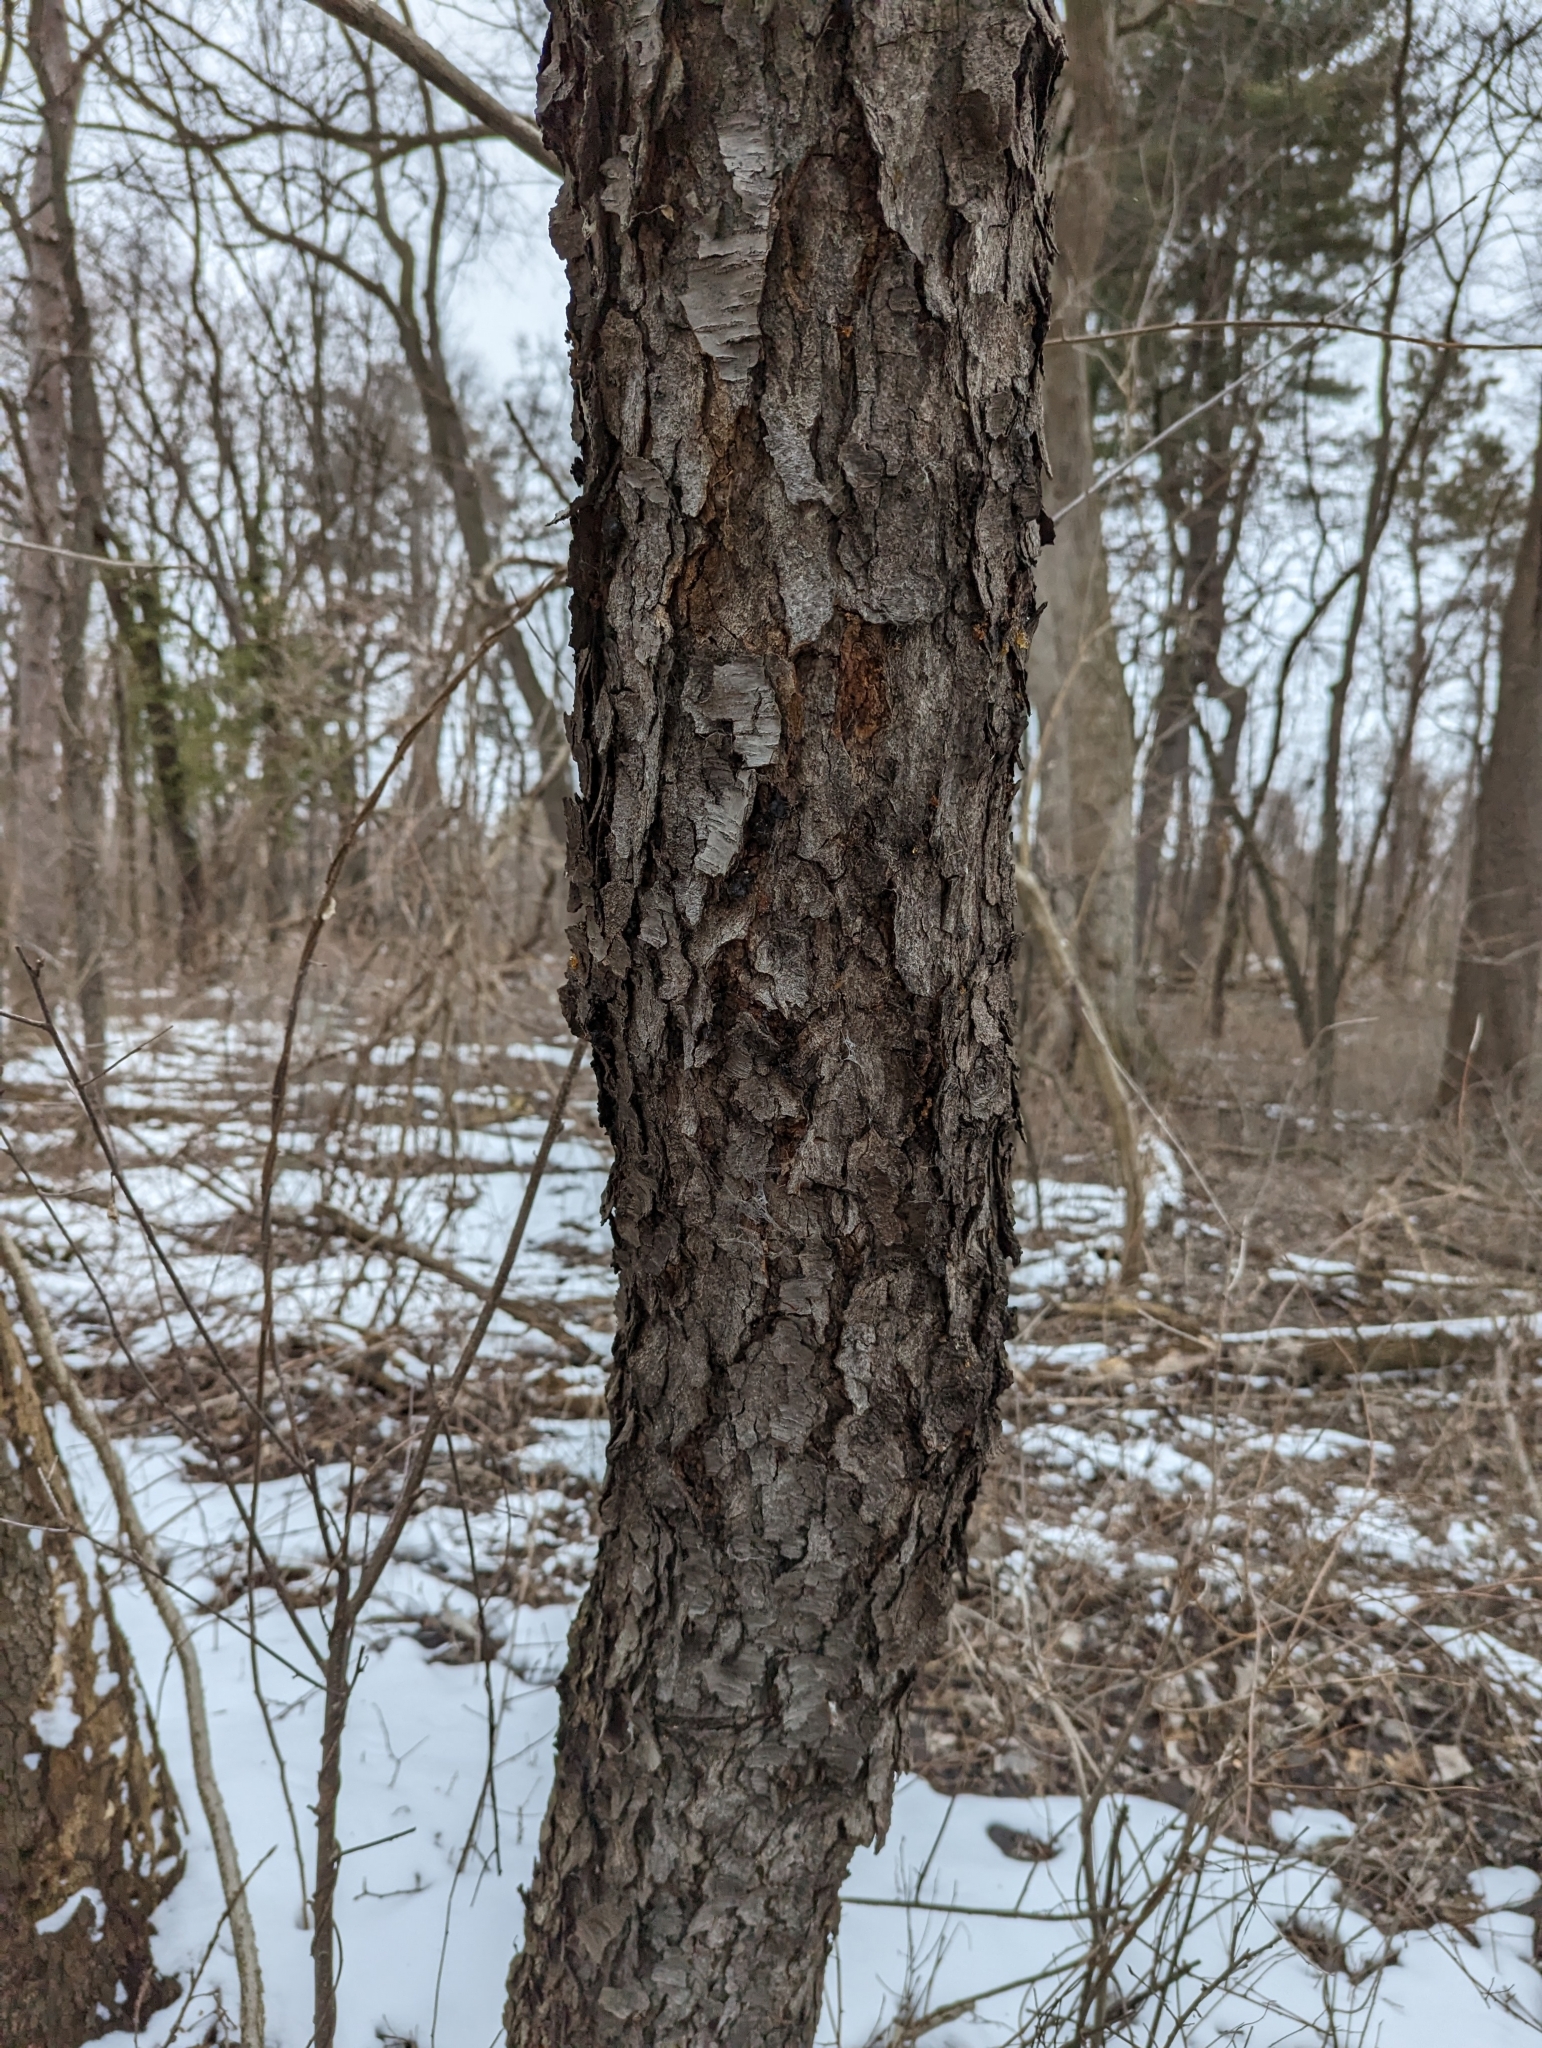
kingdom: Plantae
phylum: Tracheophyta
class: Magnoliopsida
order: Rosales
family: Rosaceae
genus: Prunus
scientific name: Prunus serotina
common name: Black cherry
